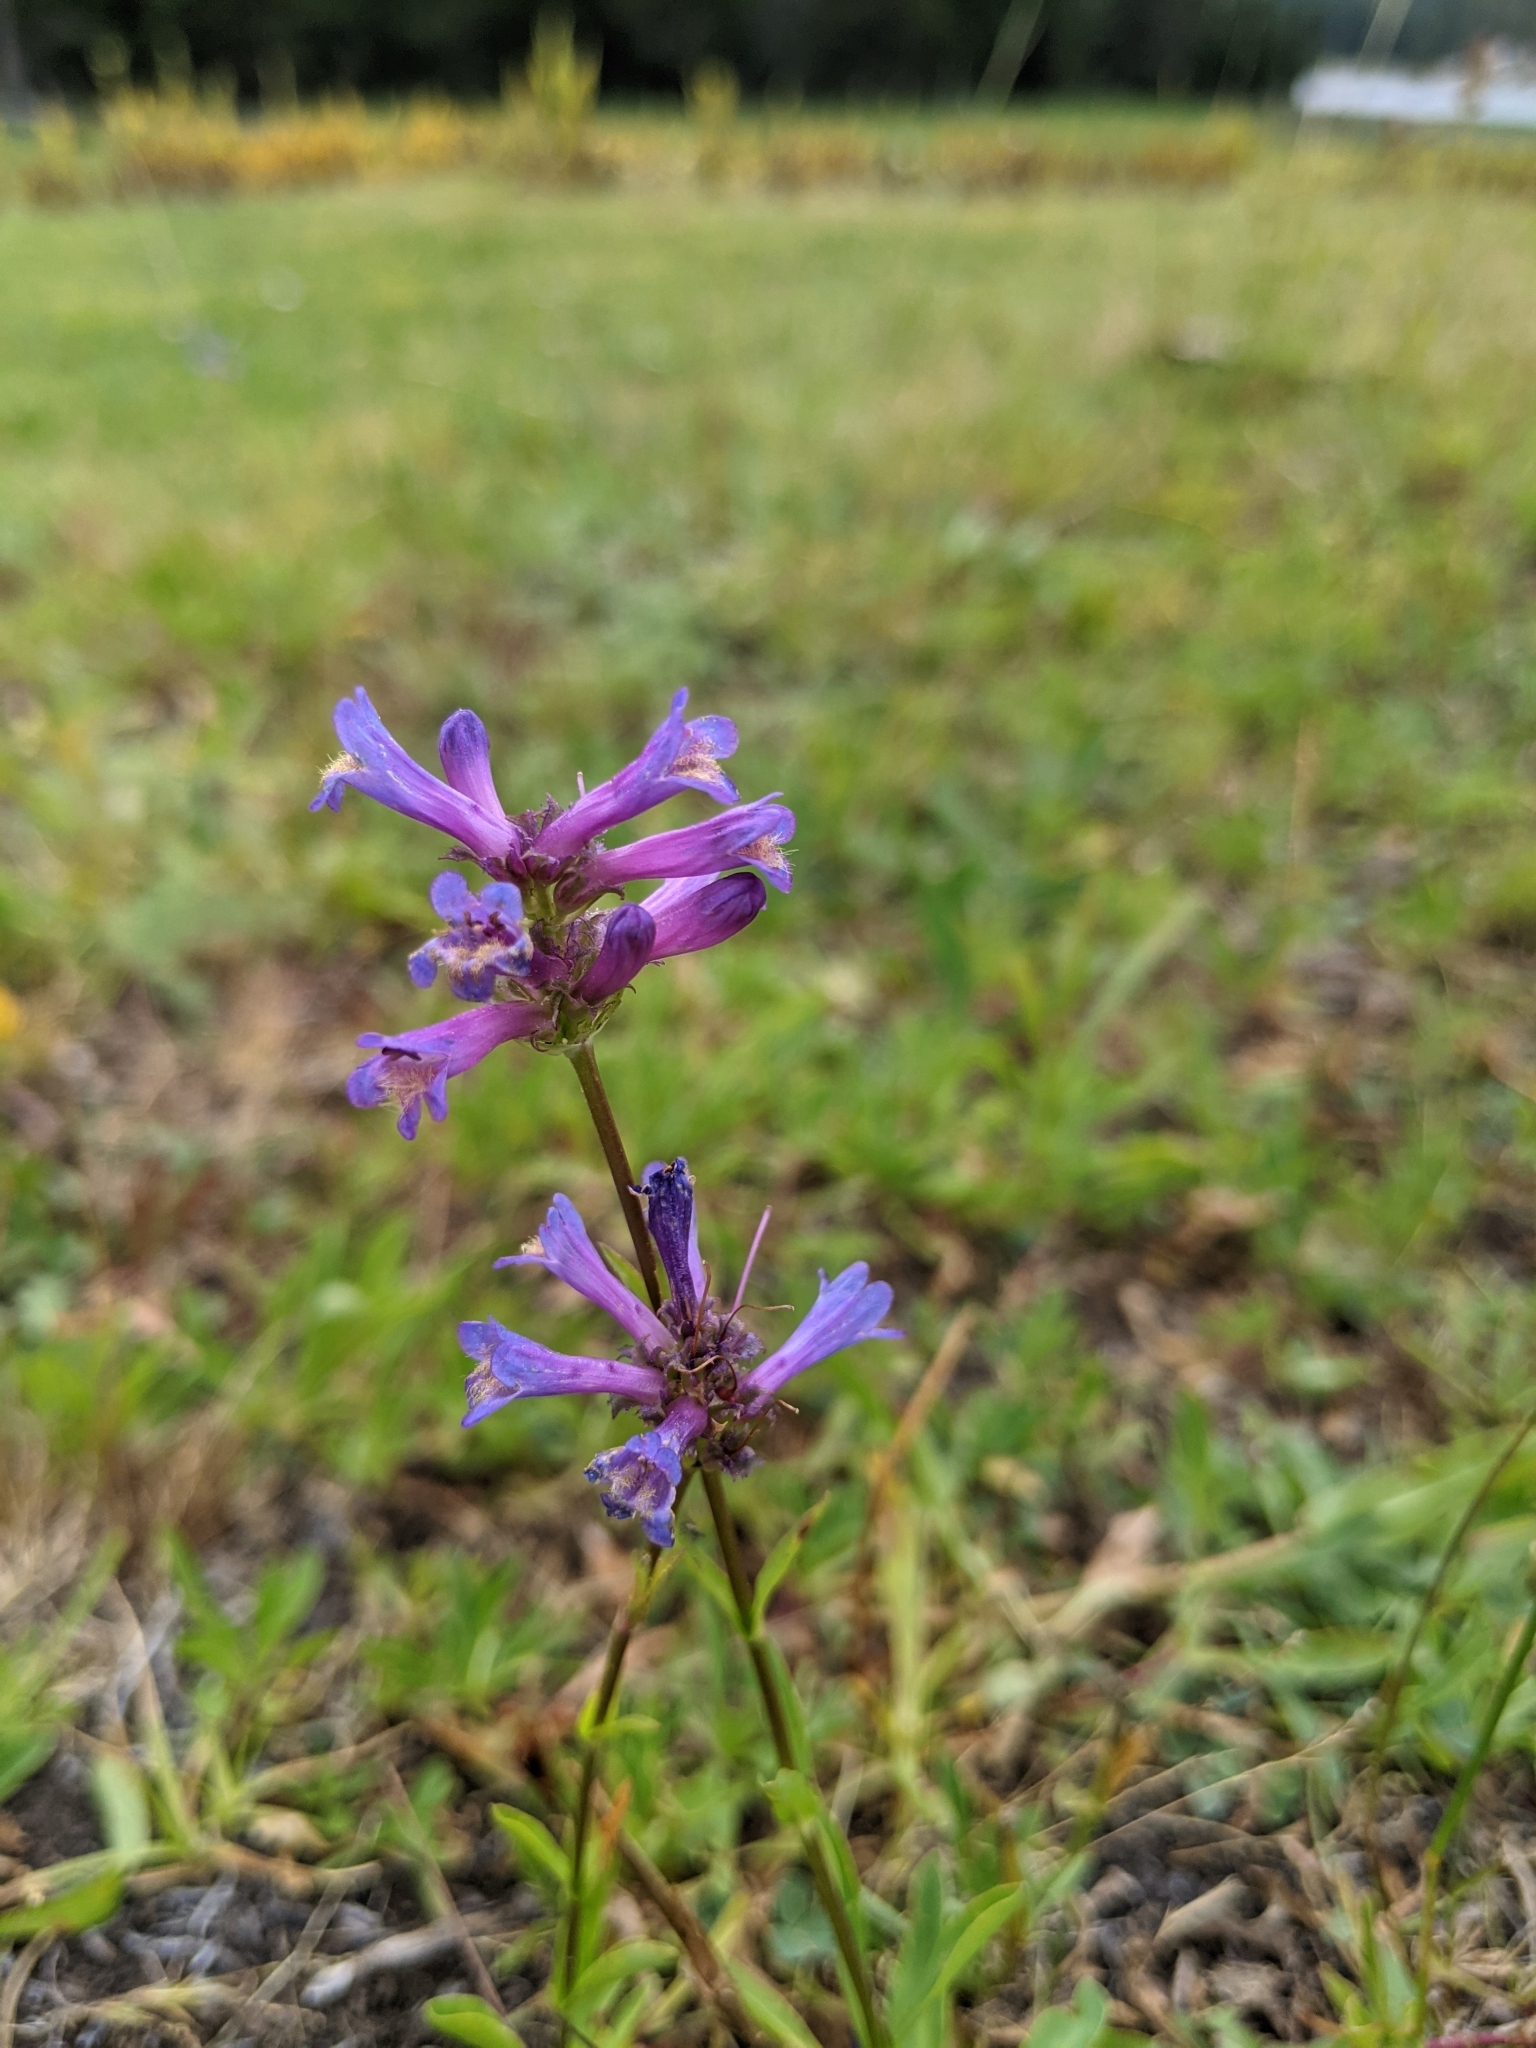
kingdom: Plantae
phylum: Tracheophyta
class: Magnoliopsida
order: Lamiales
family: Plantaginaceae
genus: Penstemon
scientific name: Penstemon rydbergii
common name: Rydberg's beardtongue
